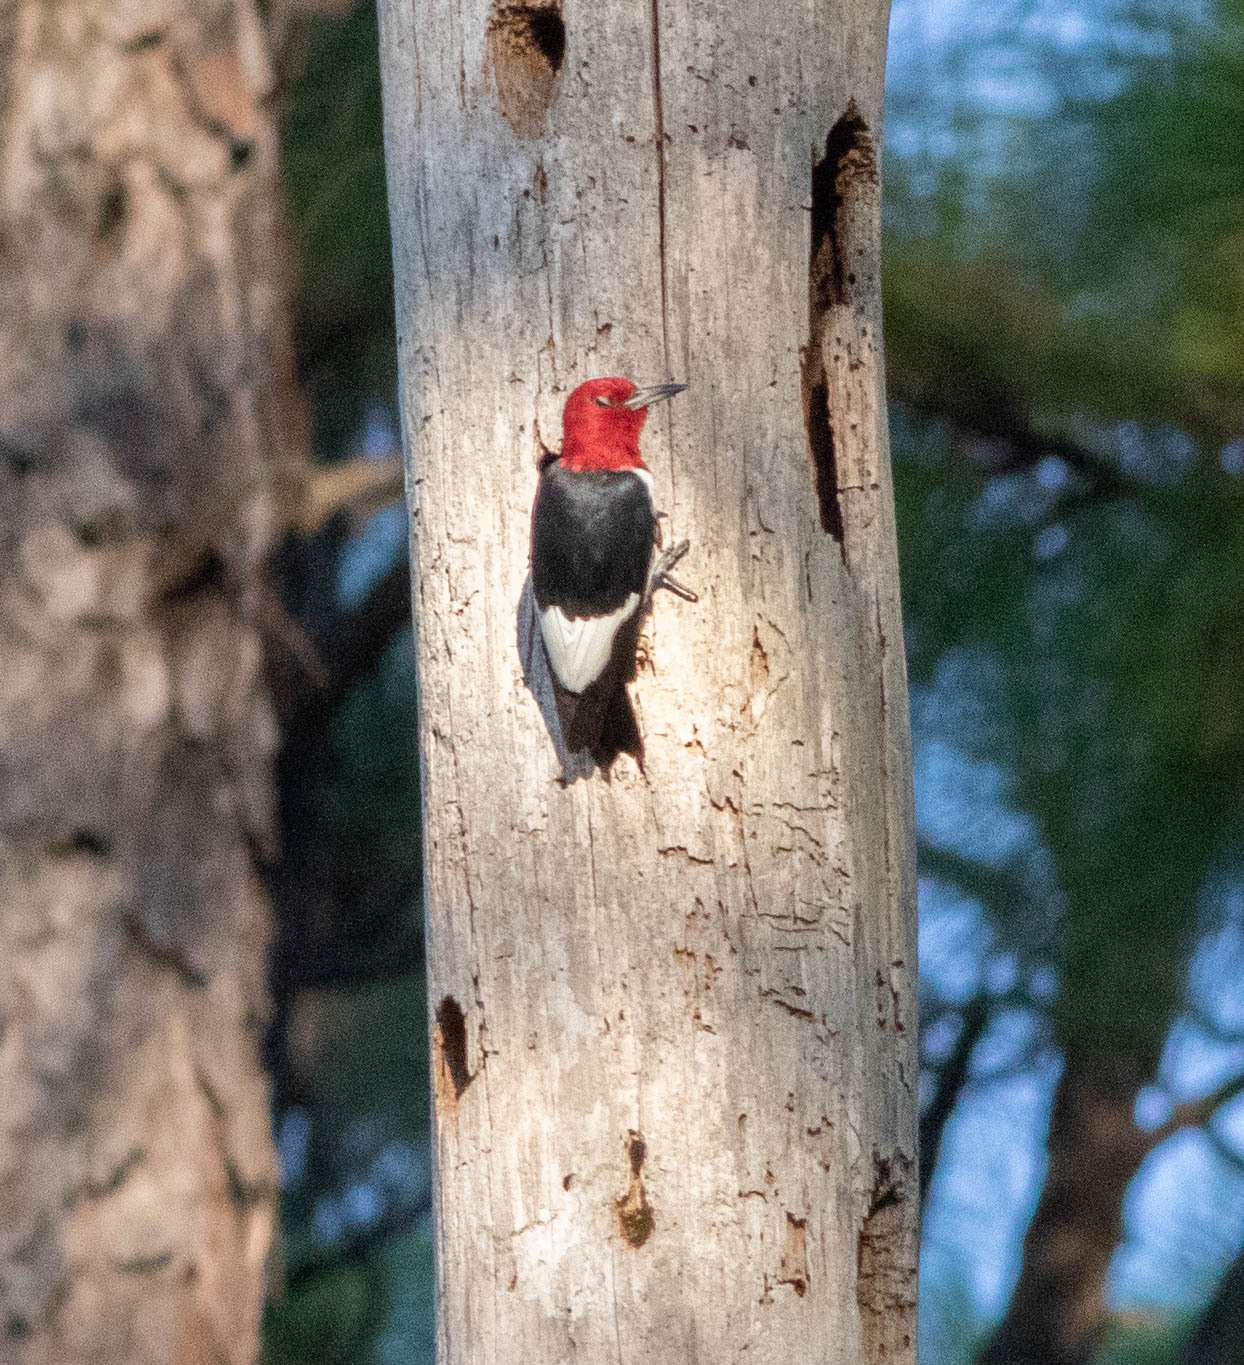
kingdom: Animalia
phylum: Chordata
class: Aves
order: Piciformes
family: Picidae
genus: Melanerpes
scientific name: Melanerpes erythrocephalus
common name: Red-headed woodpecker
